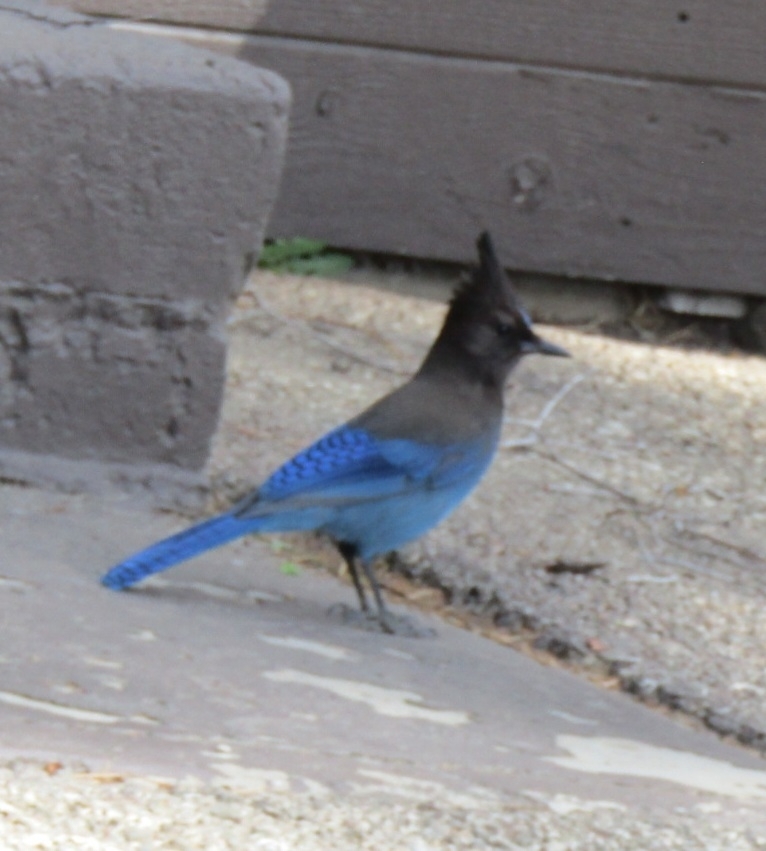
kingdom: Animalia
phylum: Chordata
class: Aves
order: Passeriformes
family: Corvidae
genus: Cyanocitta
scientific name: Cyanocitta stelleri
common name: Steller's jay
